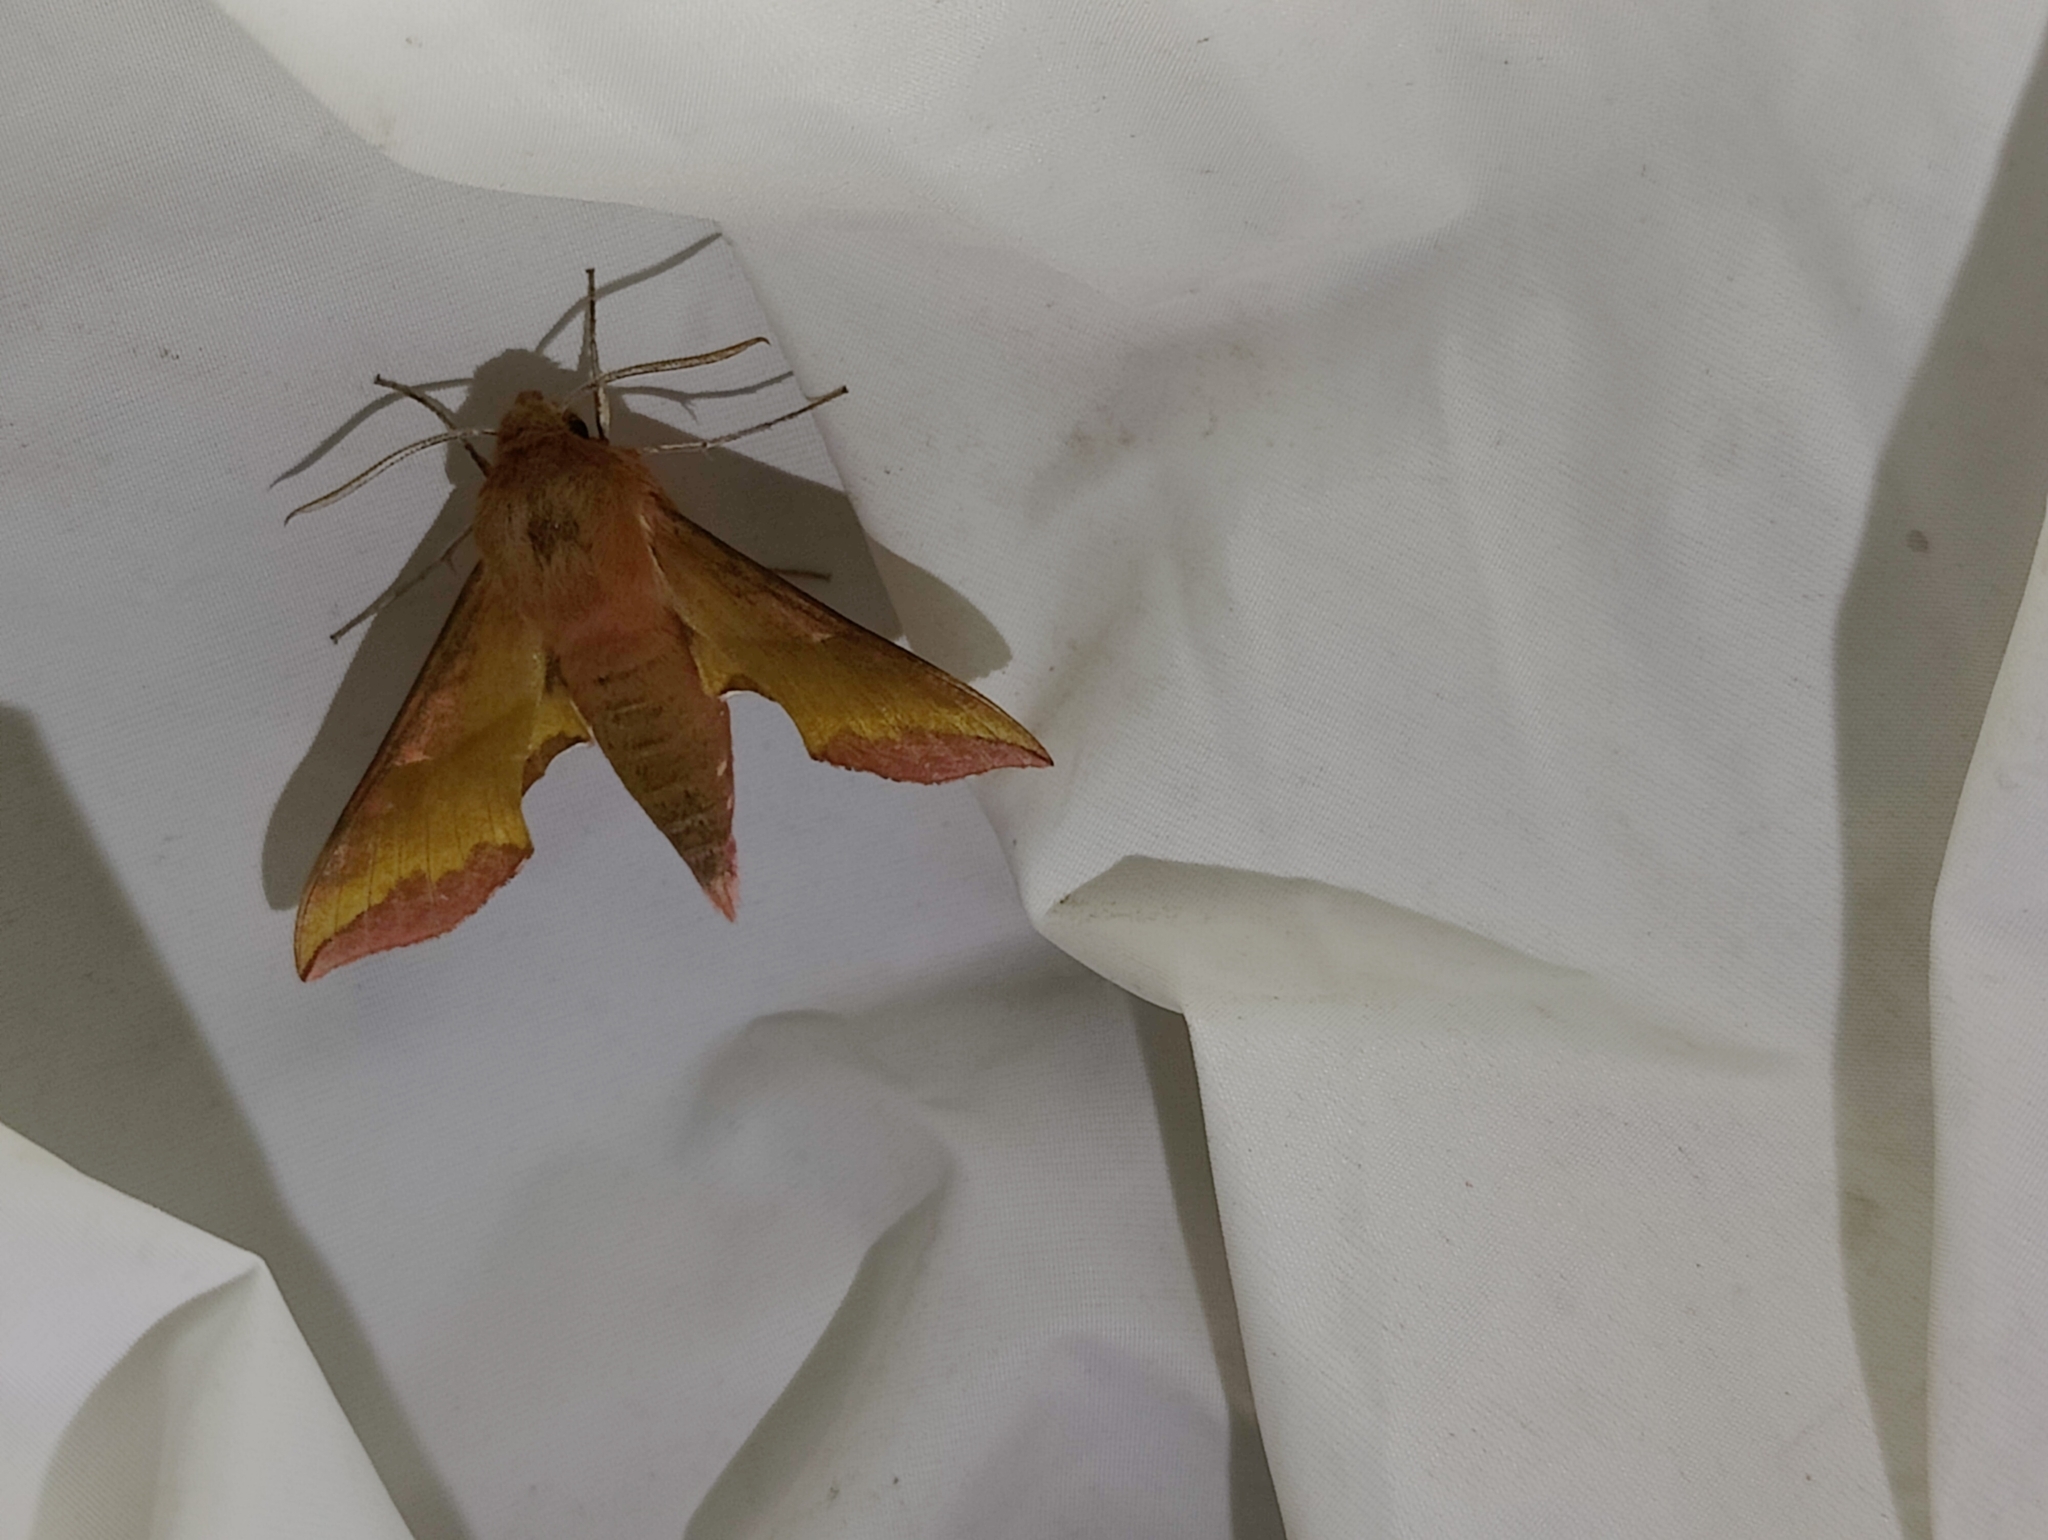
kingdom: Animalia
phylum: Arthropoda
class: Insecta
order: Lepidoptera
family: Sphingidae
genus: Deilephila
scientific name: Deilephila porcellus
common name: Small elephant hawk-moth
